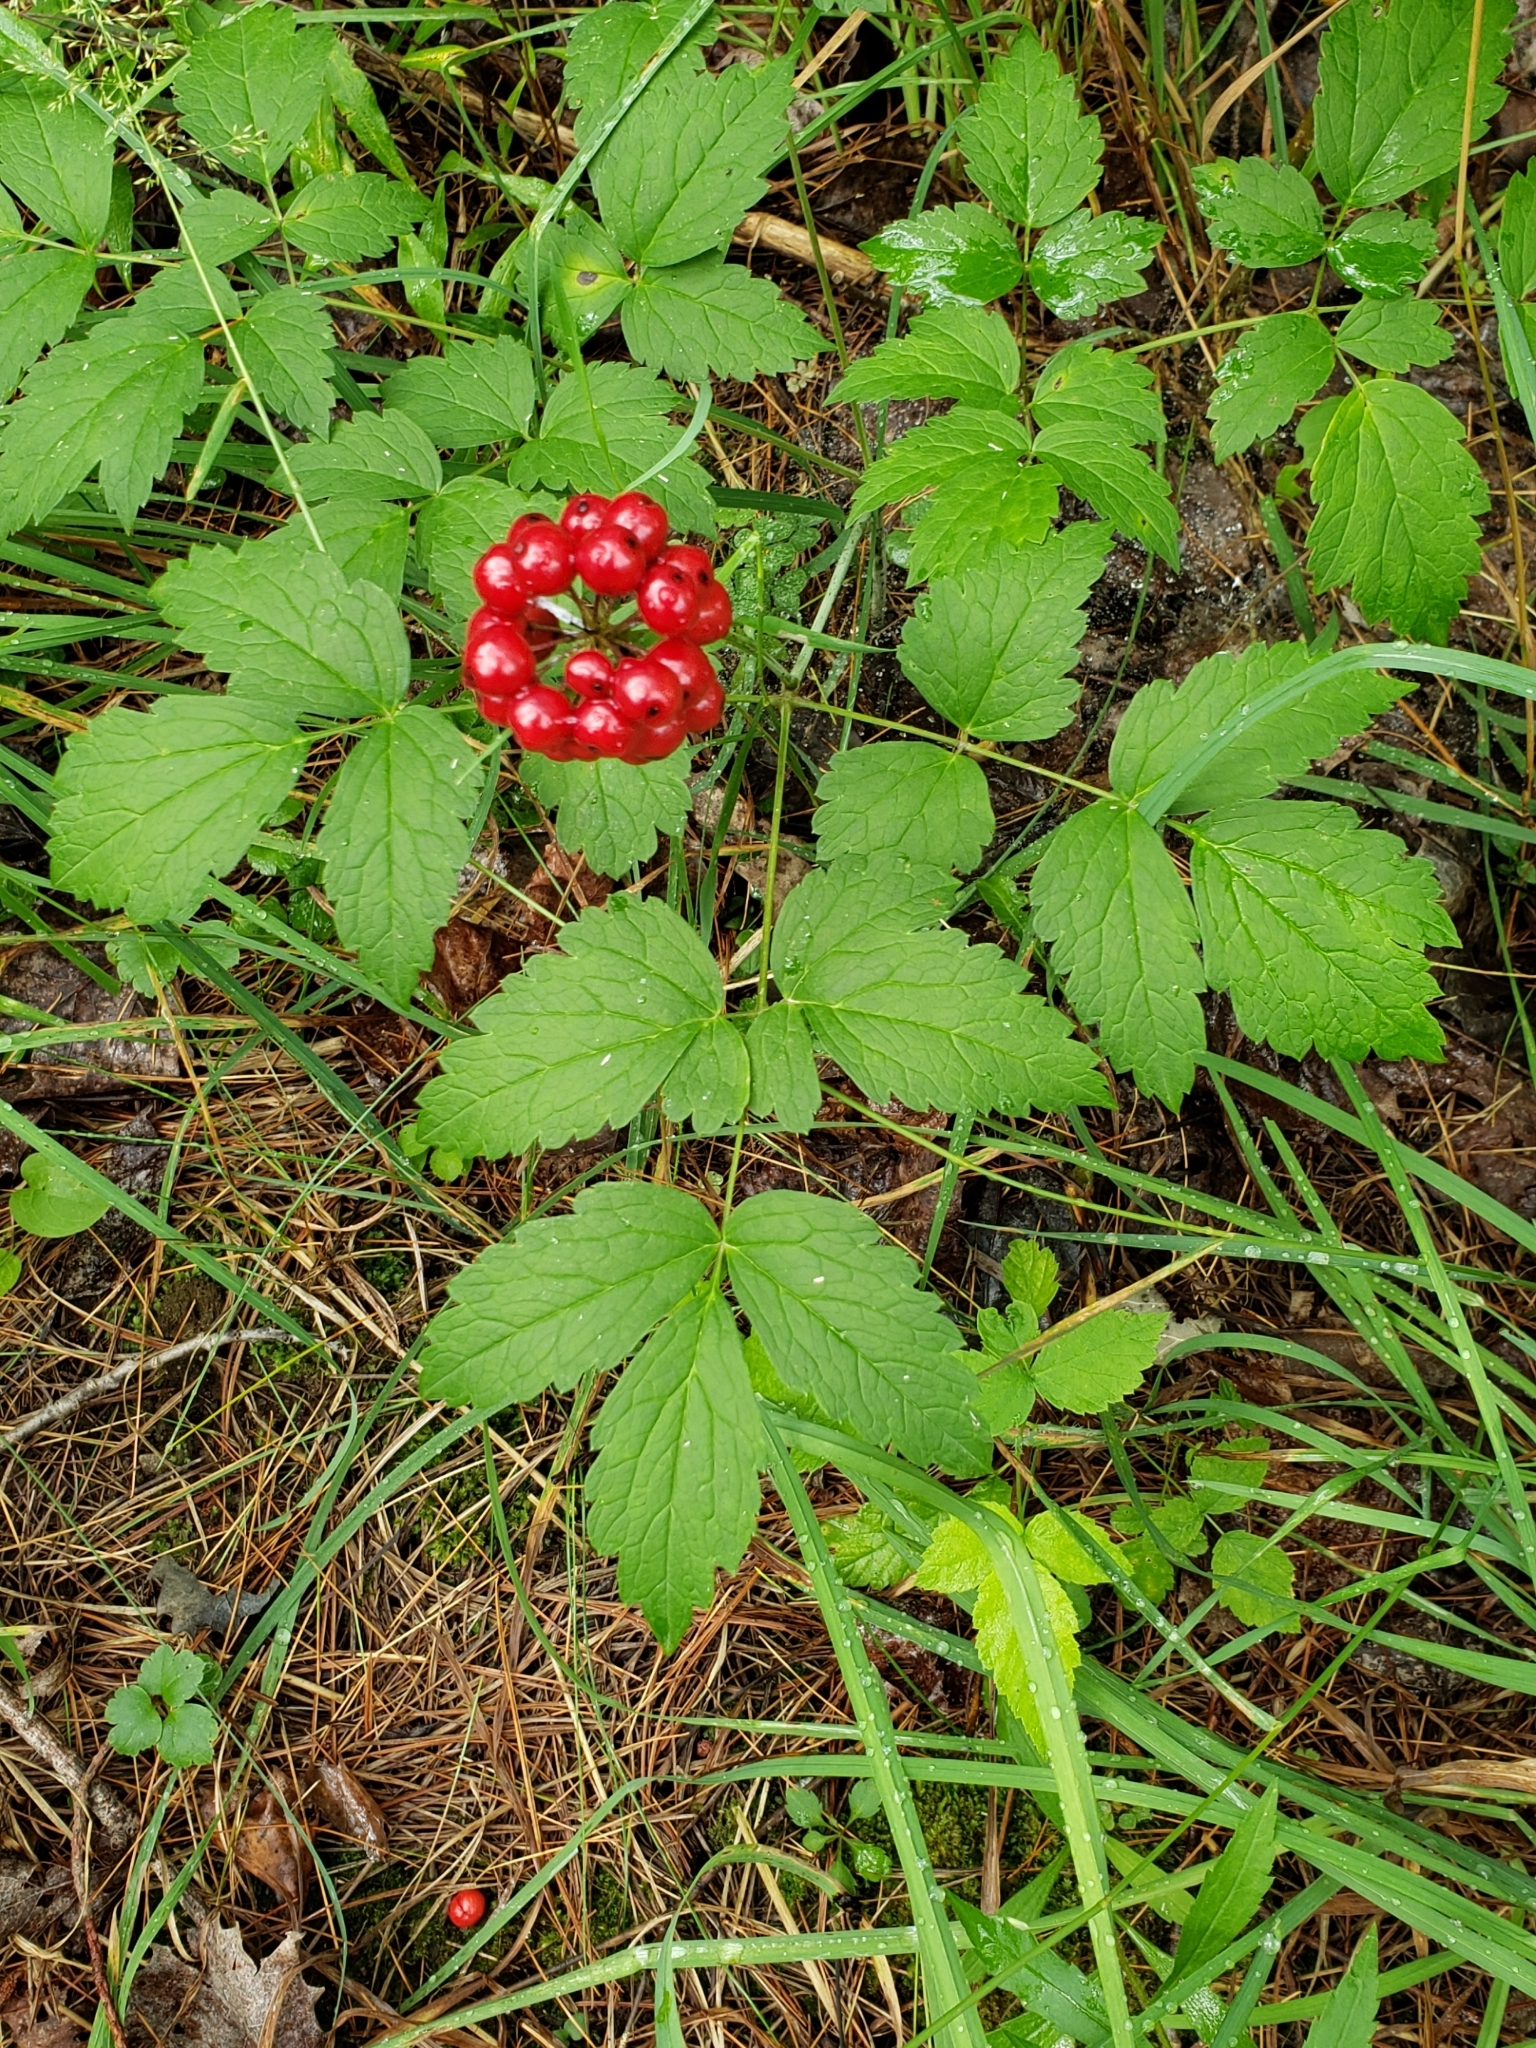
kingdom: Plantae
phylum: Tracheophyta
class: Magnoliopsida
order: Ranunculales
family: Ranunculaceae
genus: Actaea
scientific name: Actaea rubra
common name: Red baneberry
